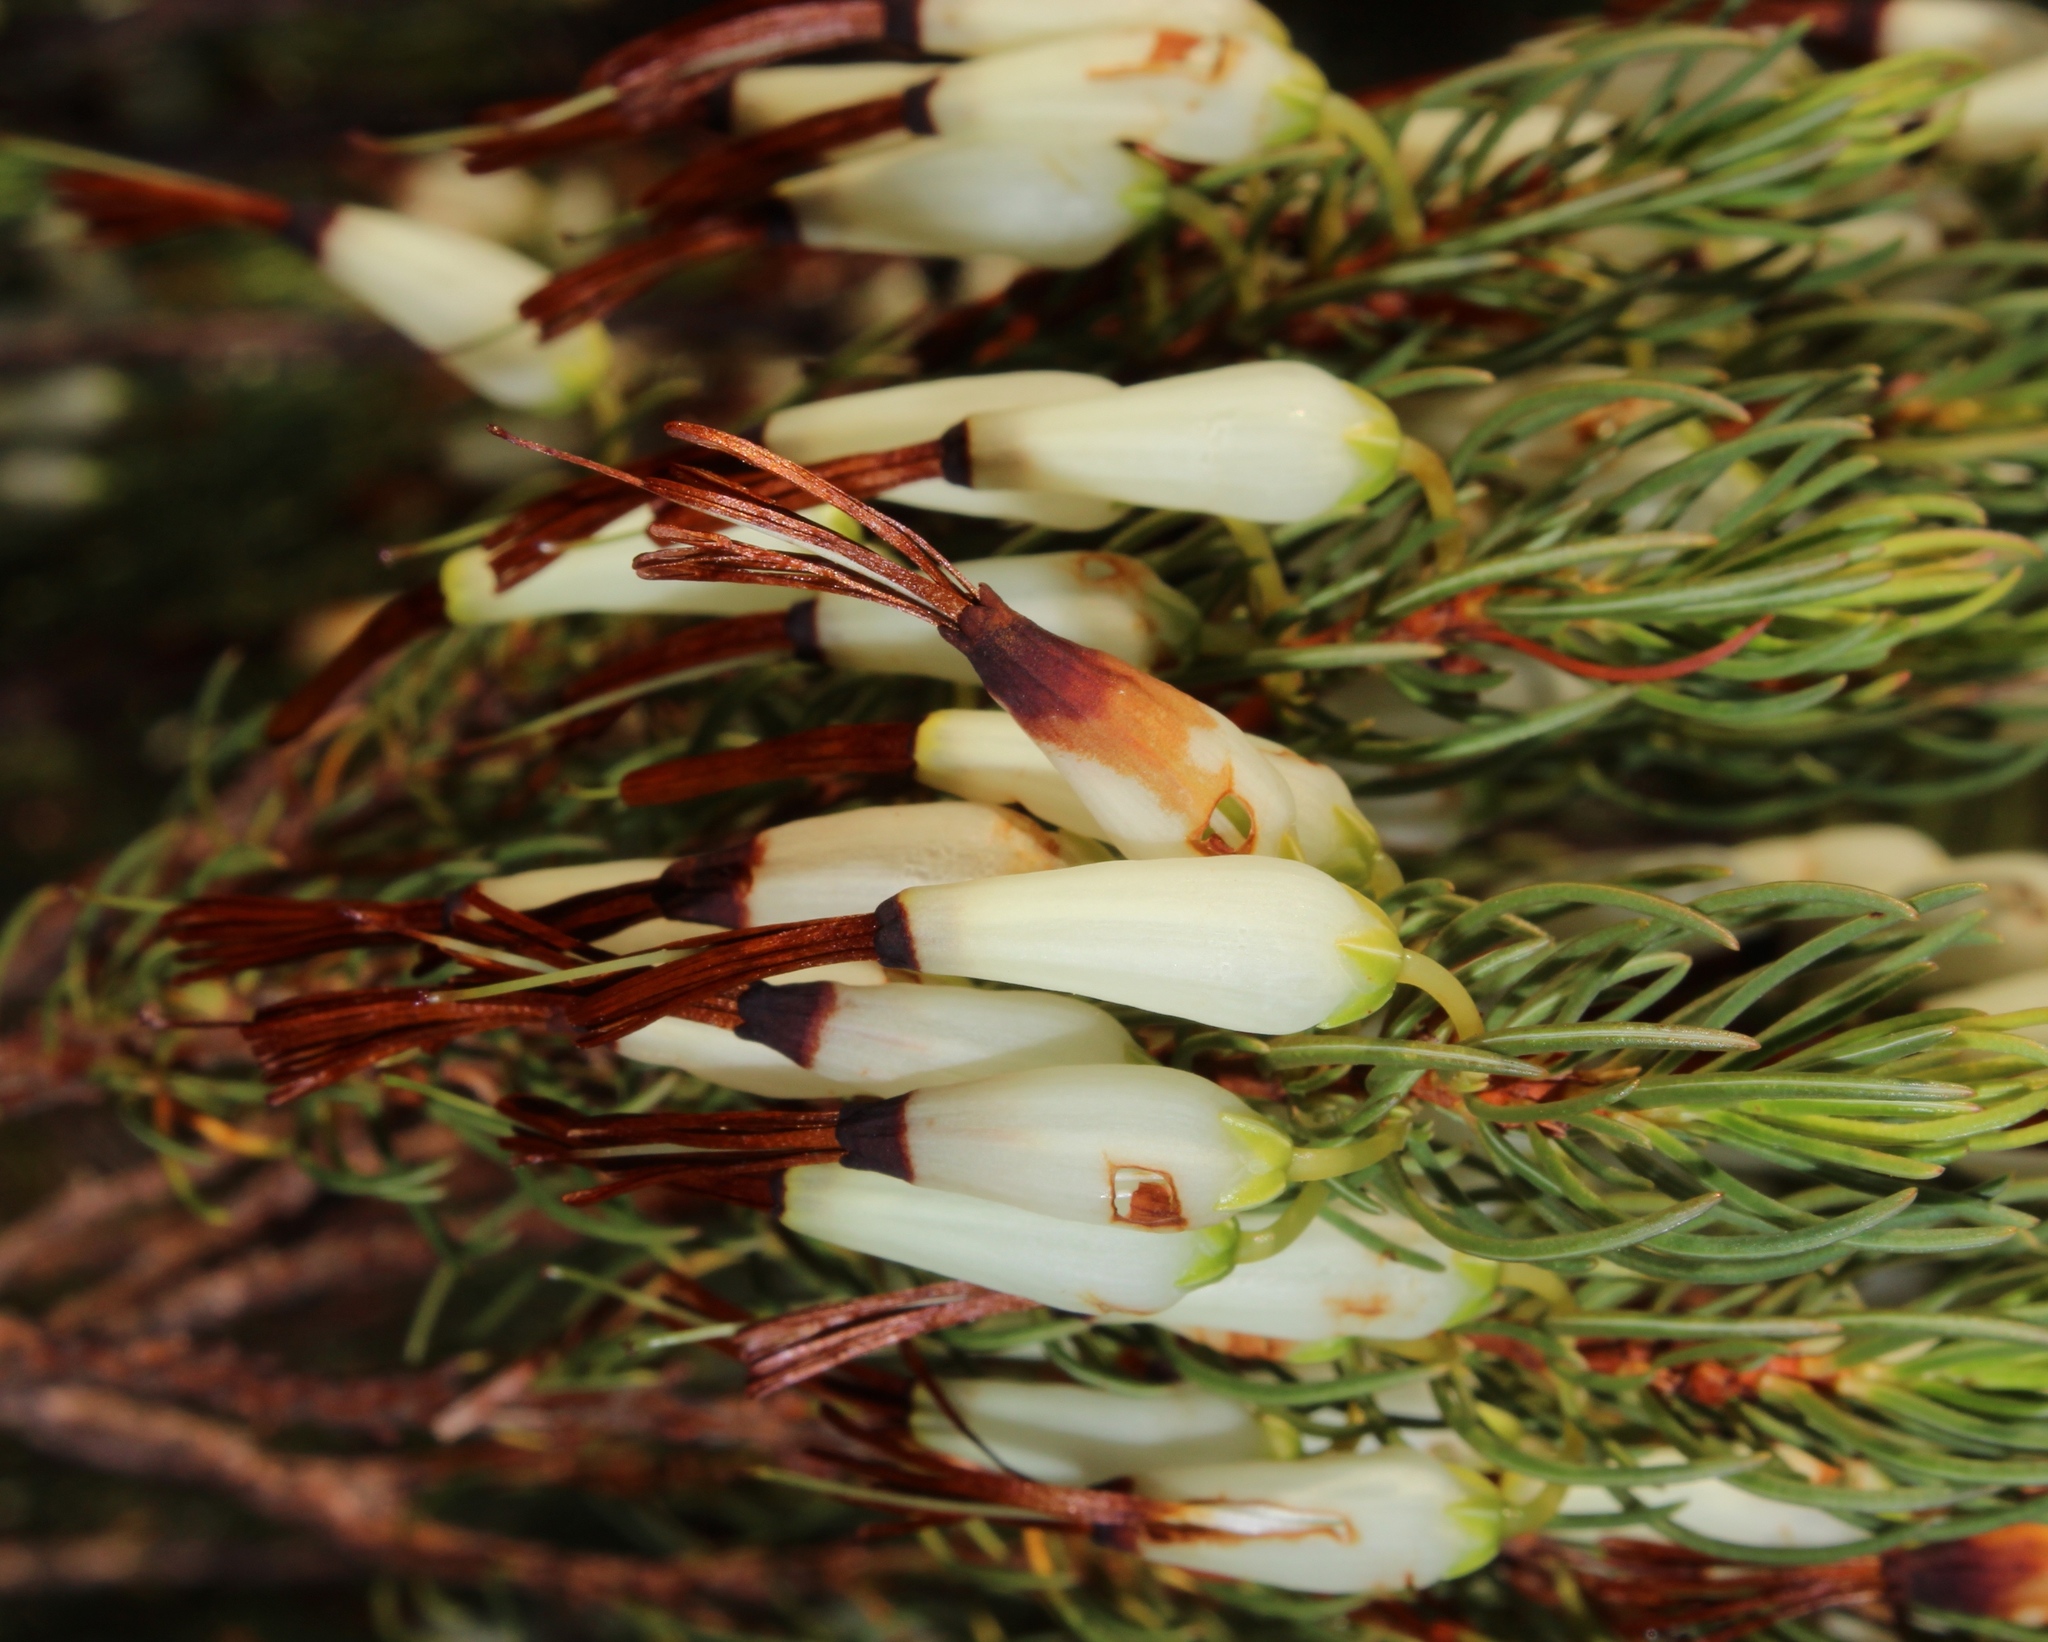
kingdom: Plantae
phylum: Tracheophyta
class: Magnoliopsida
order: Ericales
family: Ericaceae
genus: Erica
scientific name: Erica plukenetii
